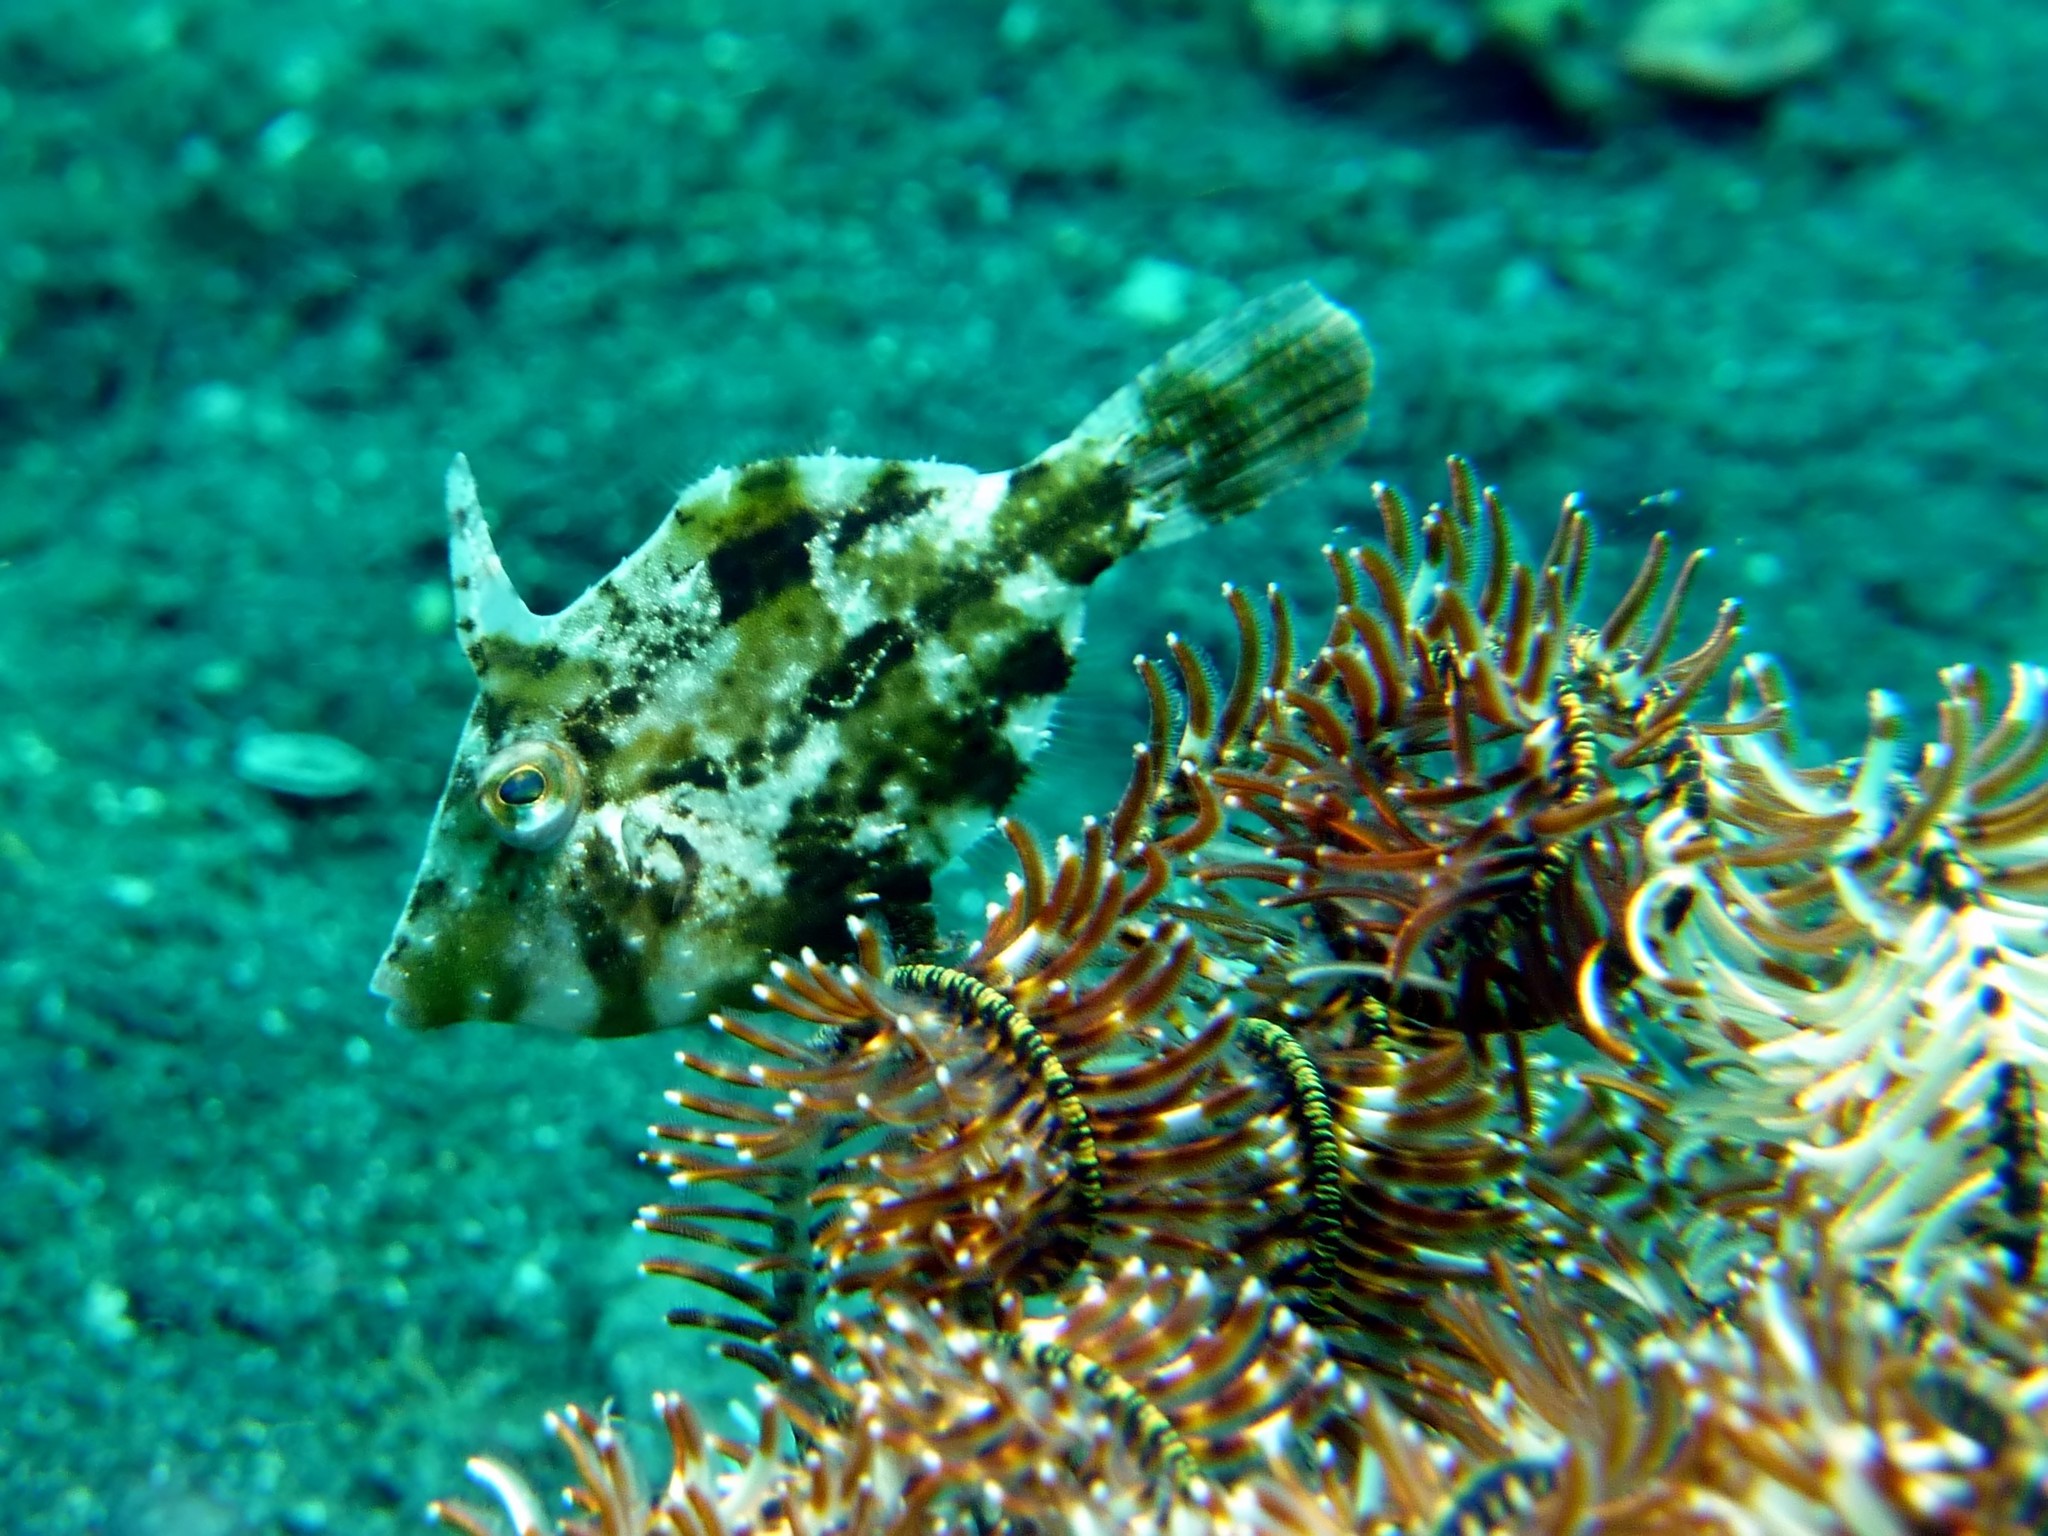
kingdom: Animalia
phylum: Chordata
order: Tetraodontiformes
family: Monacanthidae
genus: Paramonacanthus
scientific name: Paramonacanthus choirocephalus
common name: Pig faced leather jacket
